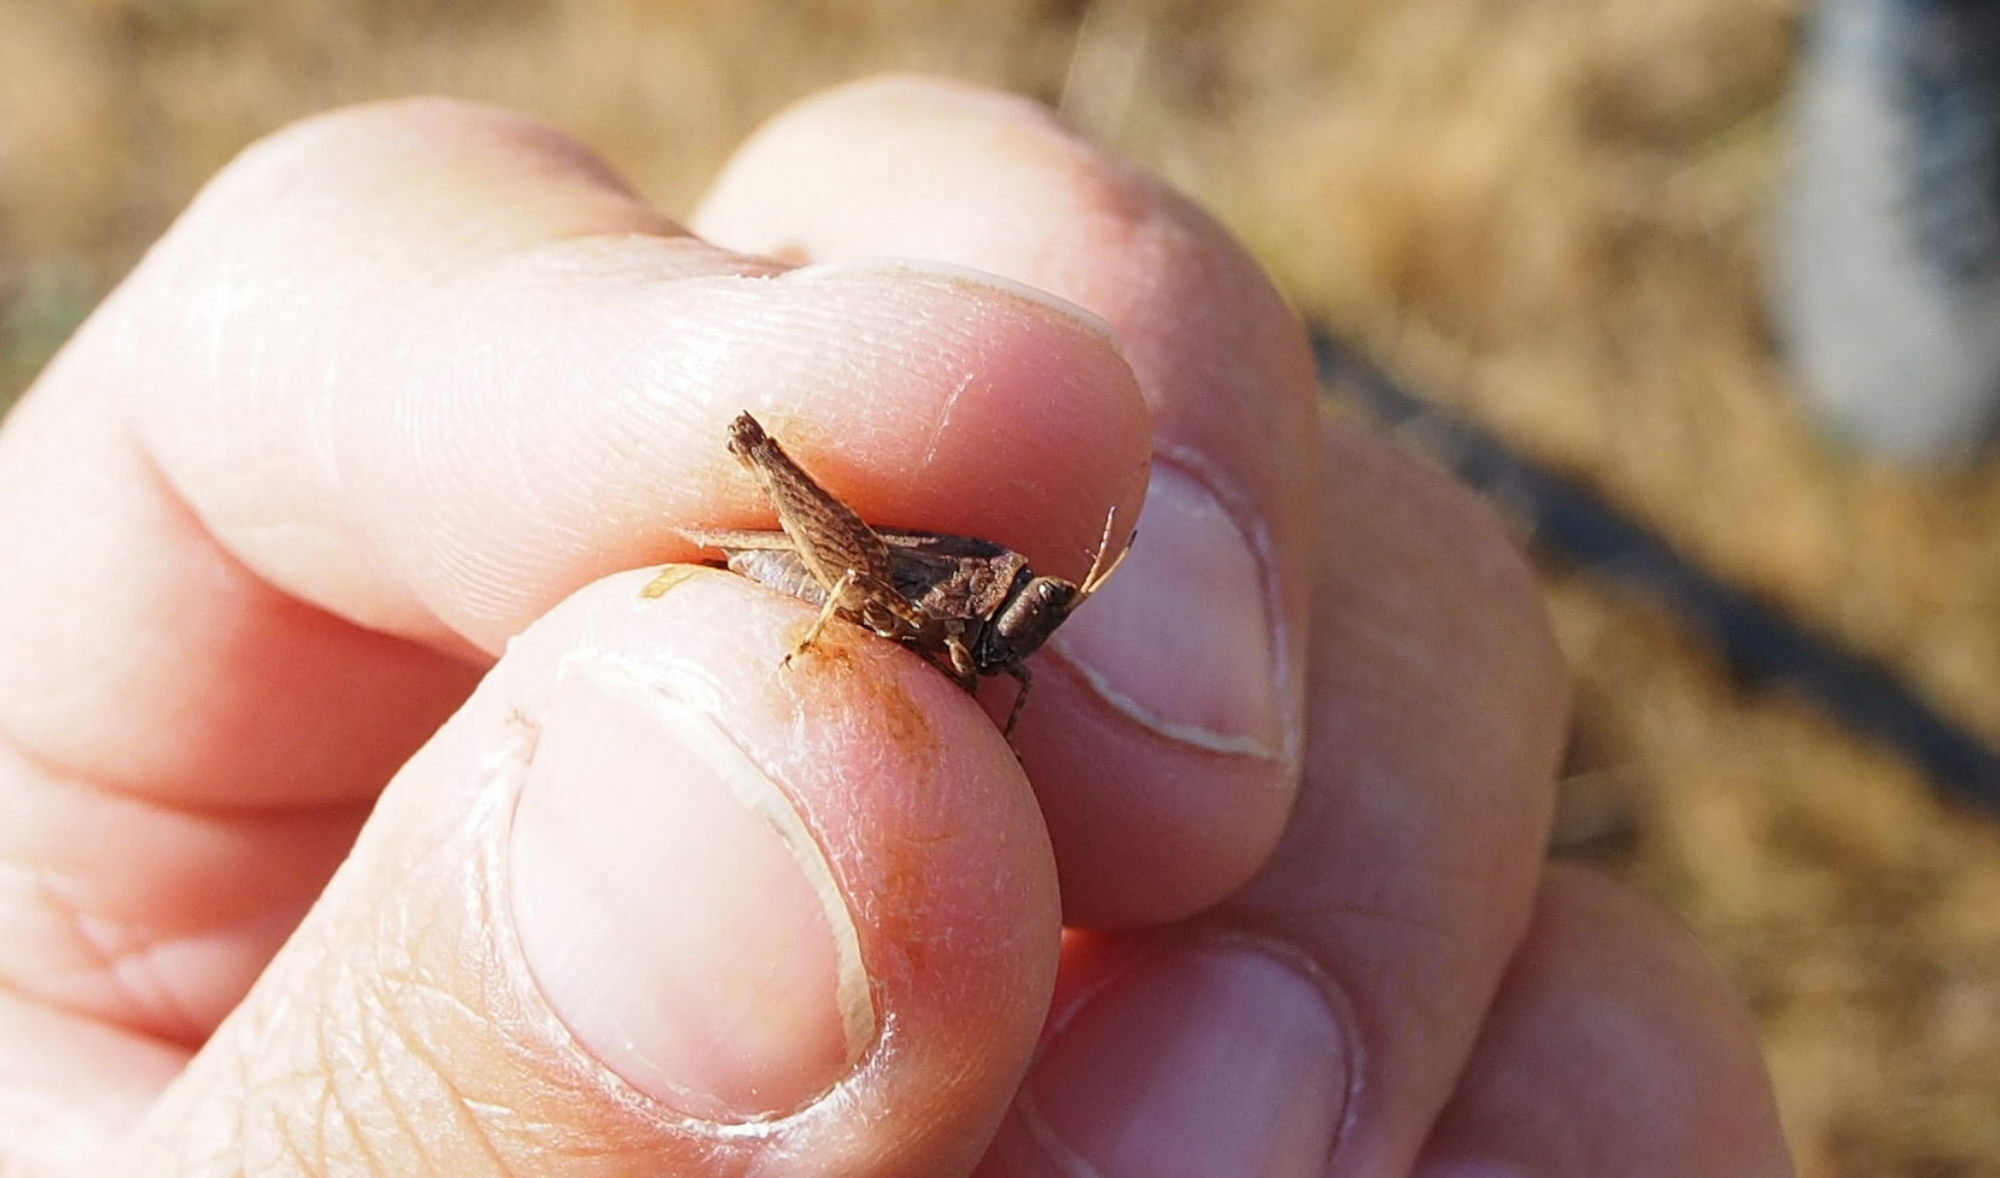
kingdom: Animalia
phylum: Arthropoda
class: Insecta
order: Orthoptera
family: Tetrigidae
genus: Tetrix
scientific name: Tetrix undulata
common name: Common groundhopper
